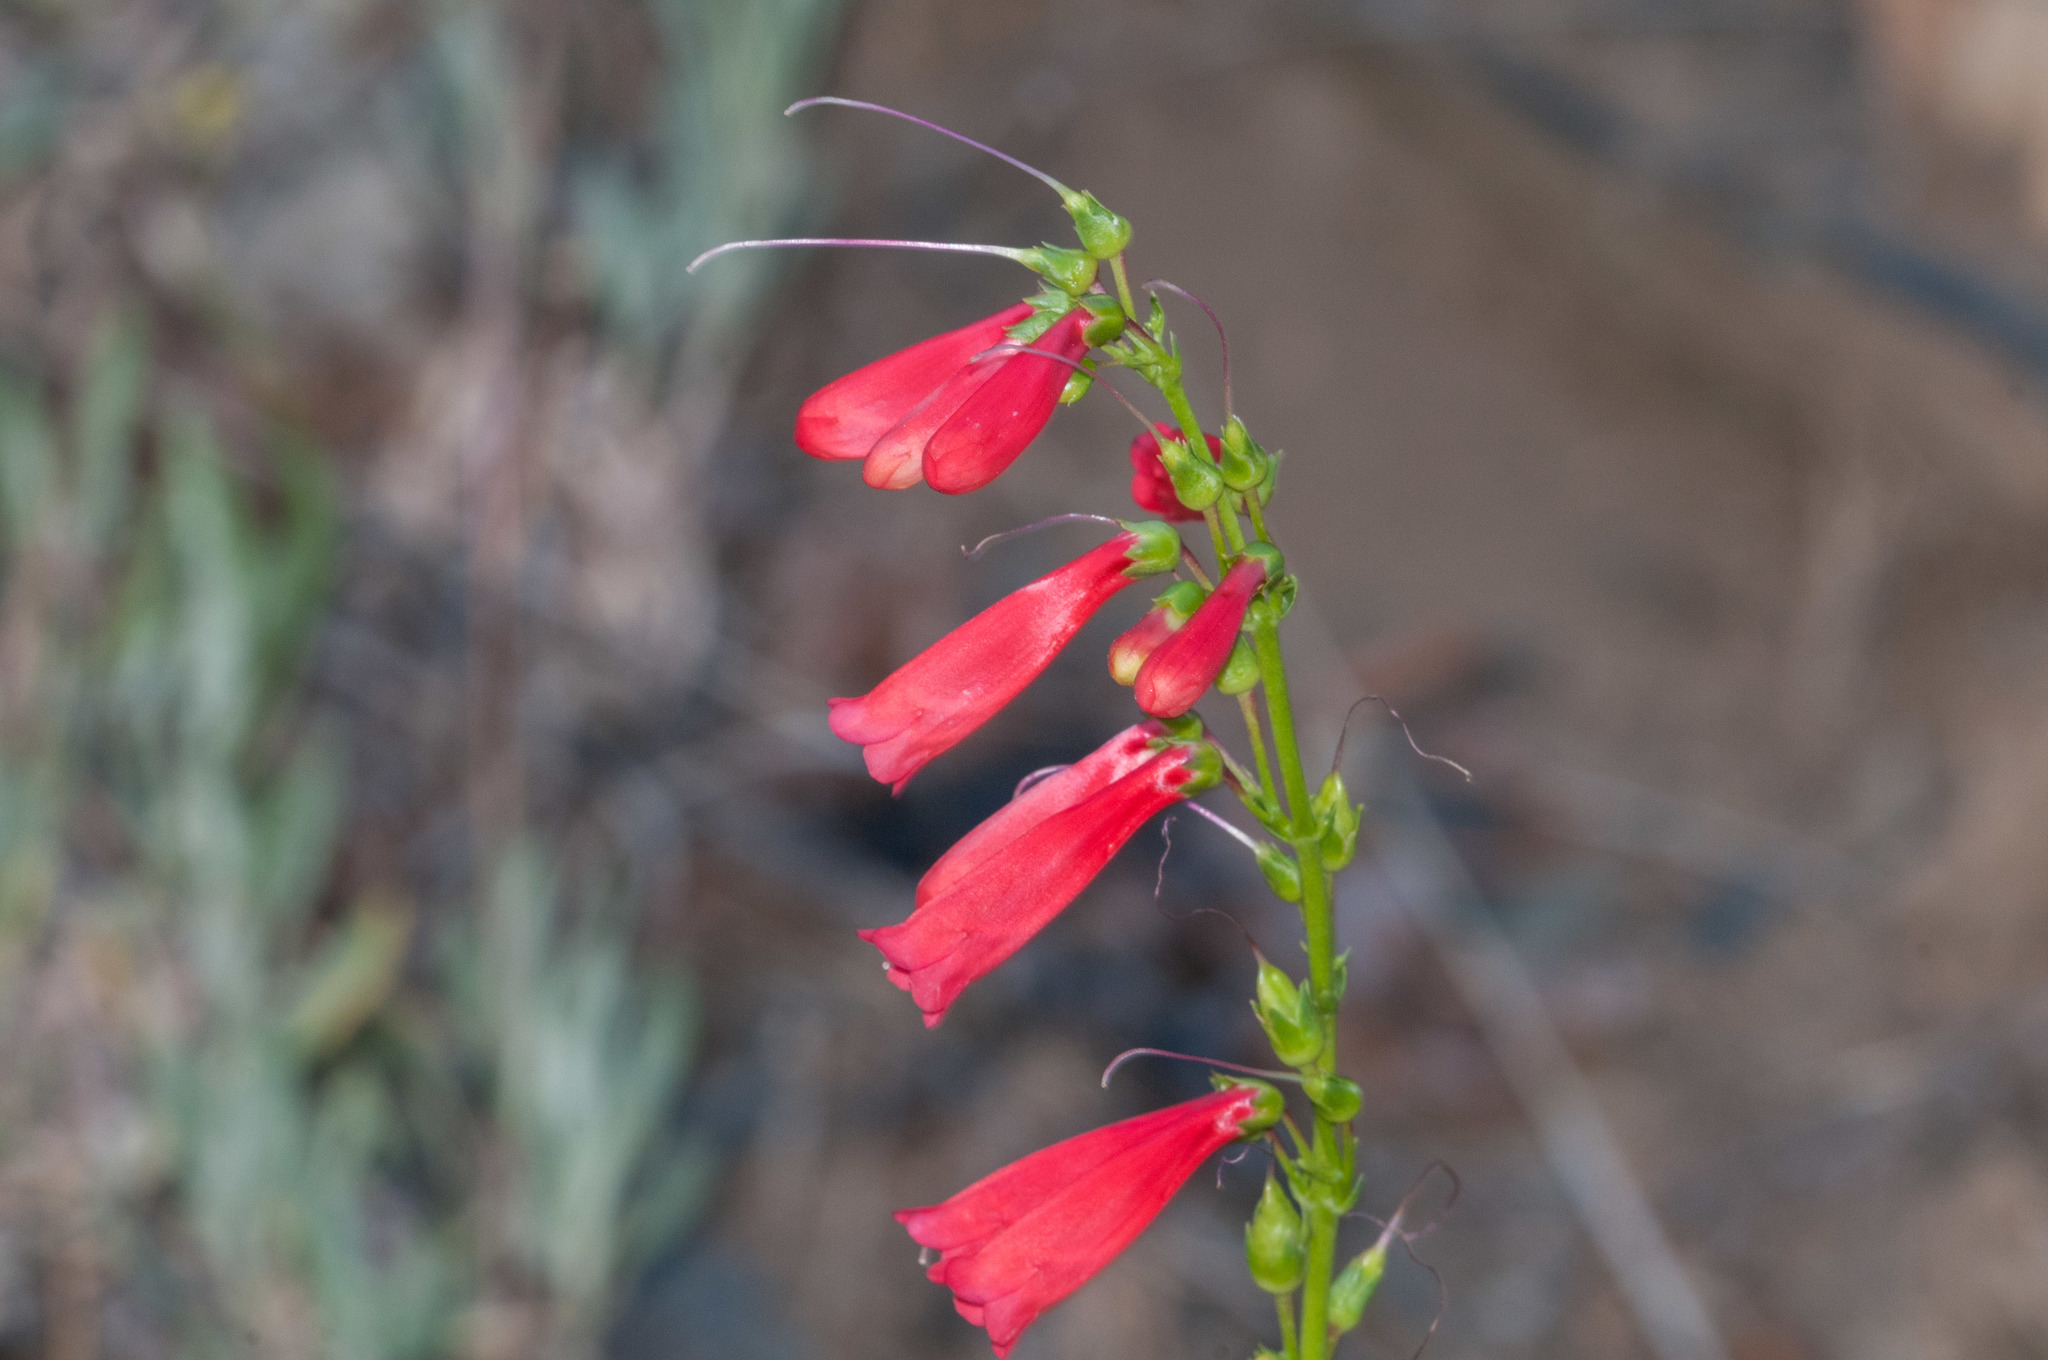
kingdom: Plantae
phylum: Tracheophyta
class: Magnoliopsida
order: Lamiales
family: Plantaginaceae
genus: Penstemon
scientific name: Penstemon eatonii
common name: Eaton's penstemon
